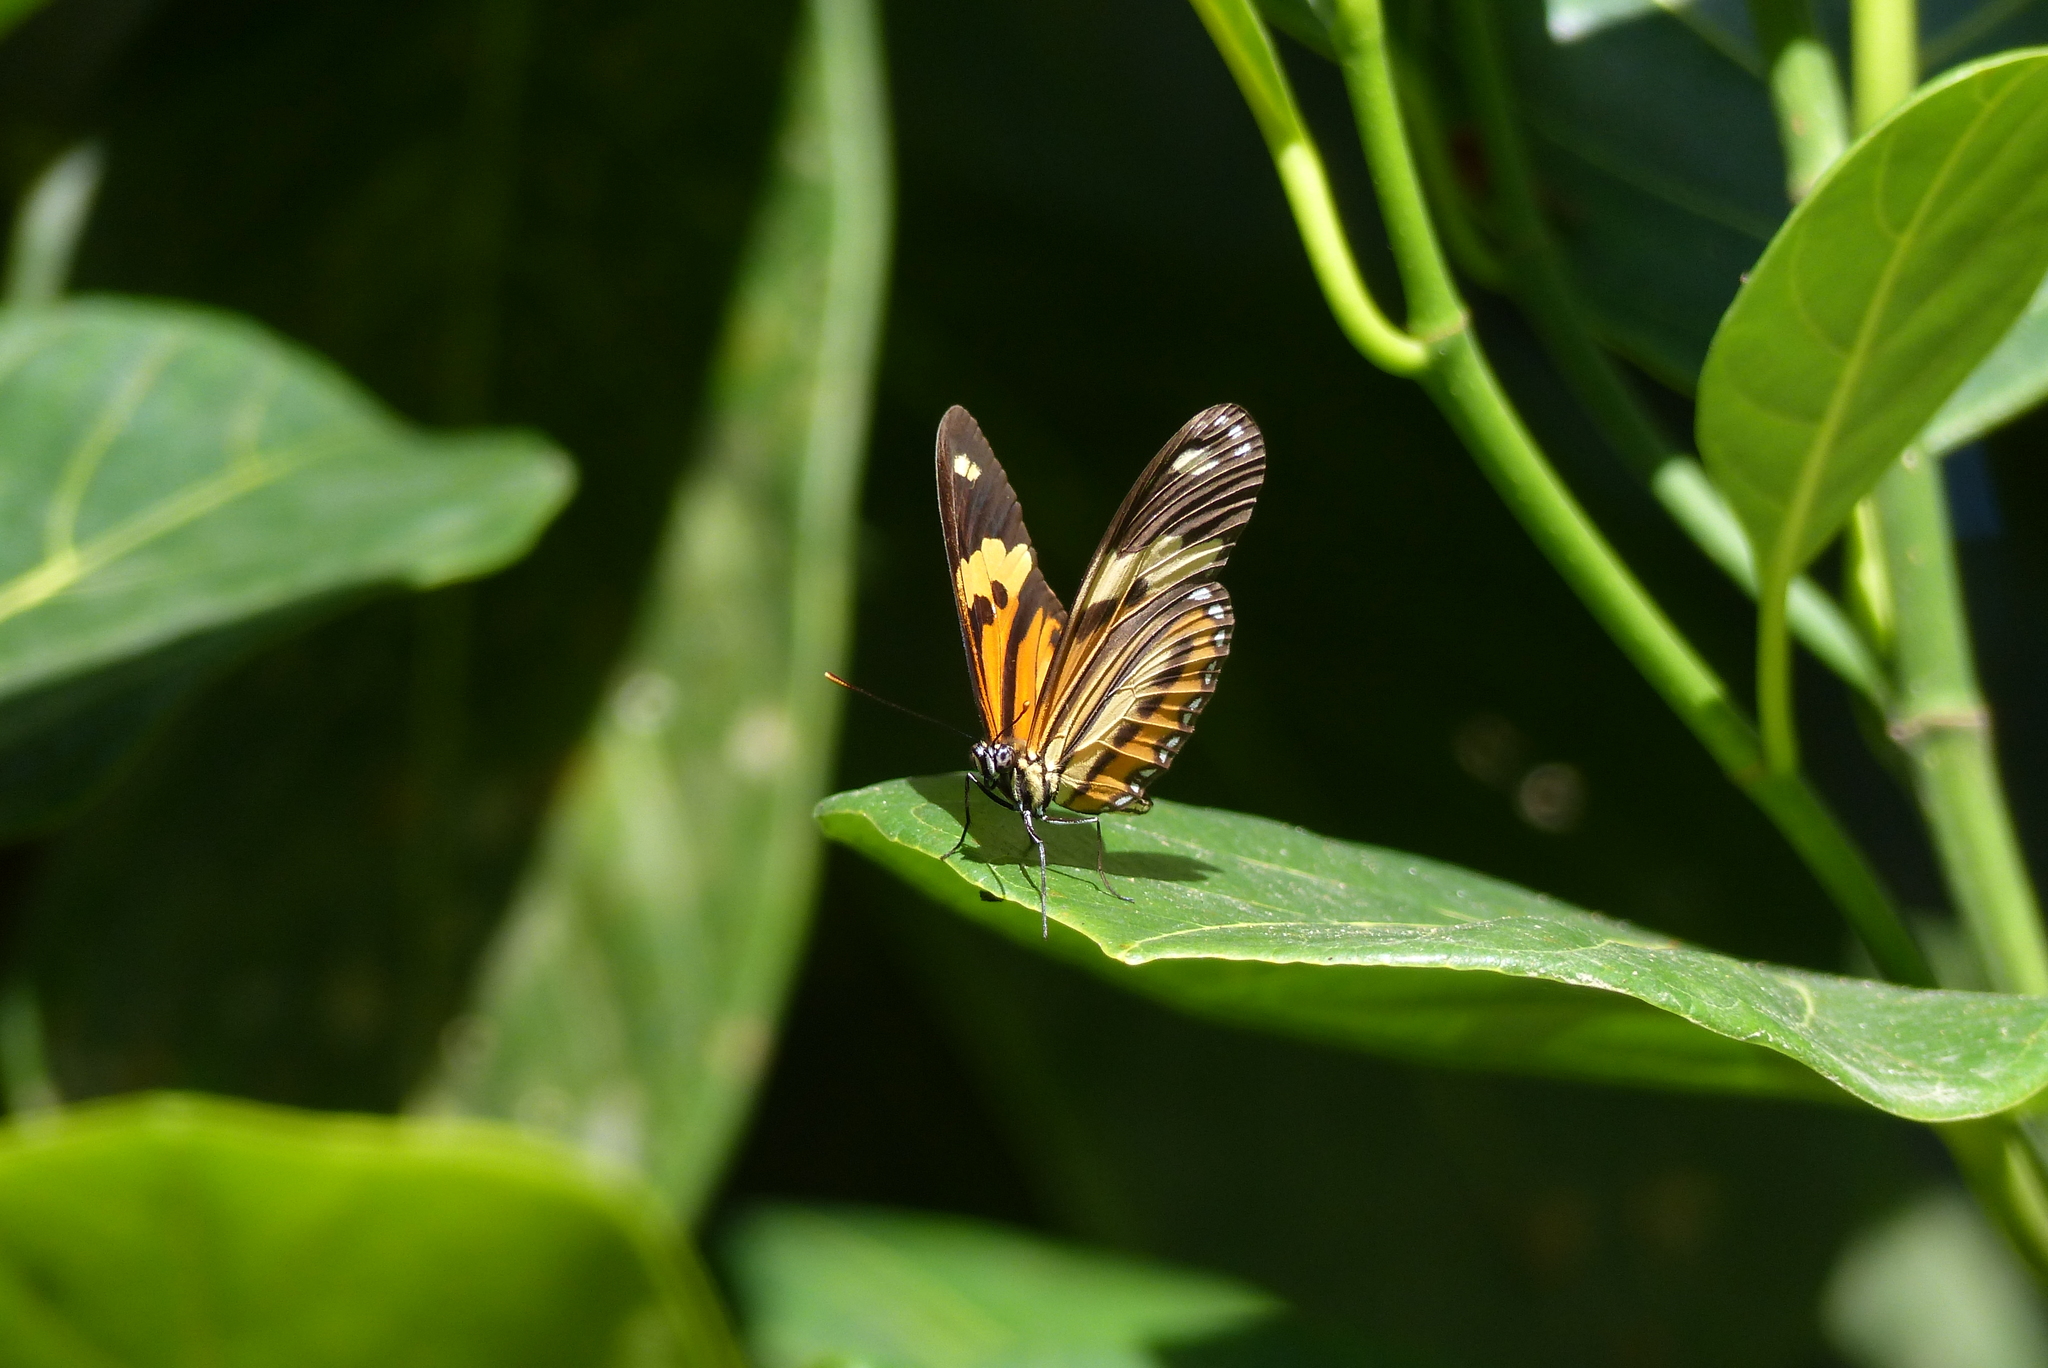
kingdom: Animalia
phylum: Arthropoda
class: Insecta
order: Lepidoptera
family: Nymphalidae
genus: Eueides
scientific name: Eueides isabella
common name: Isabella's longwing
